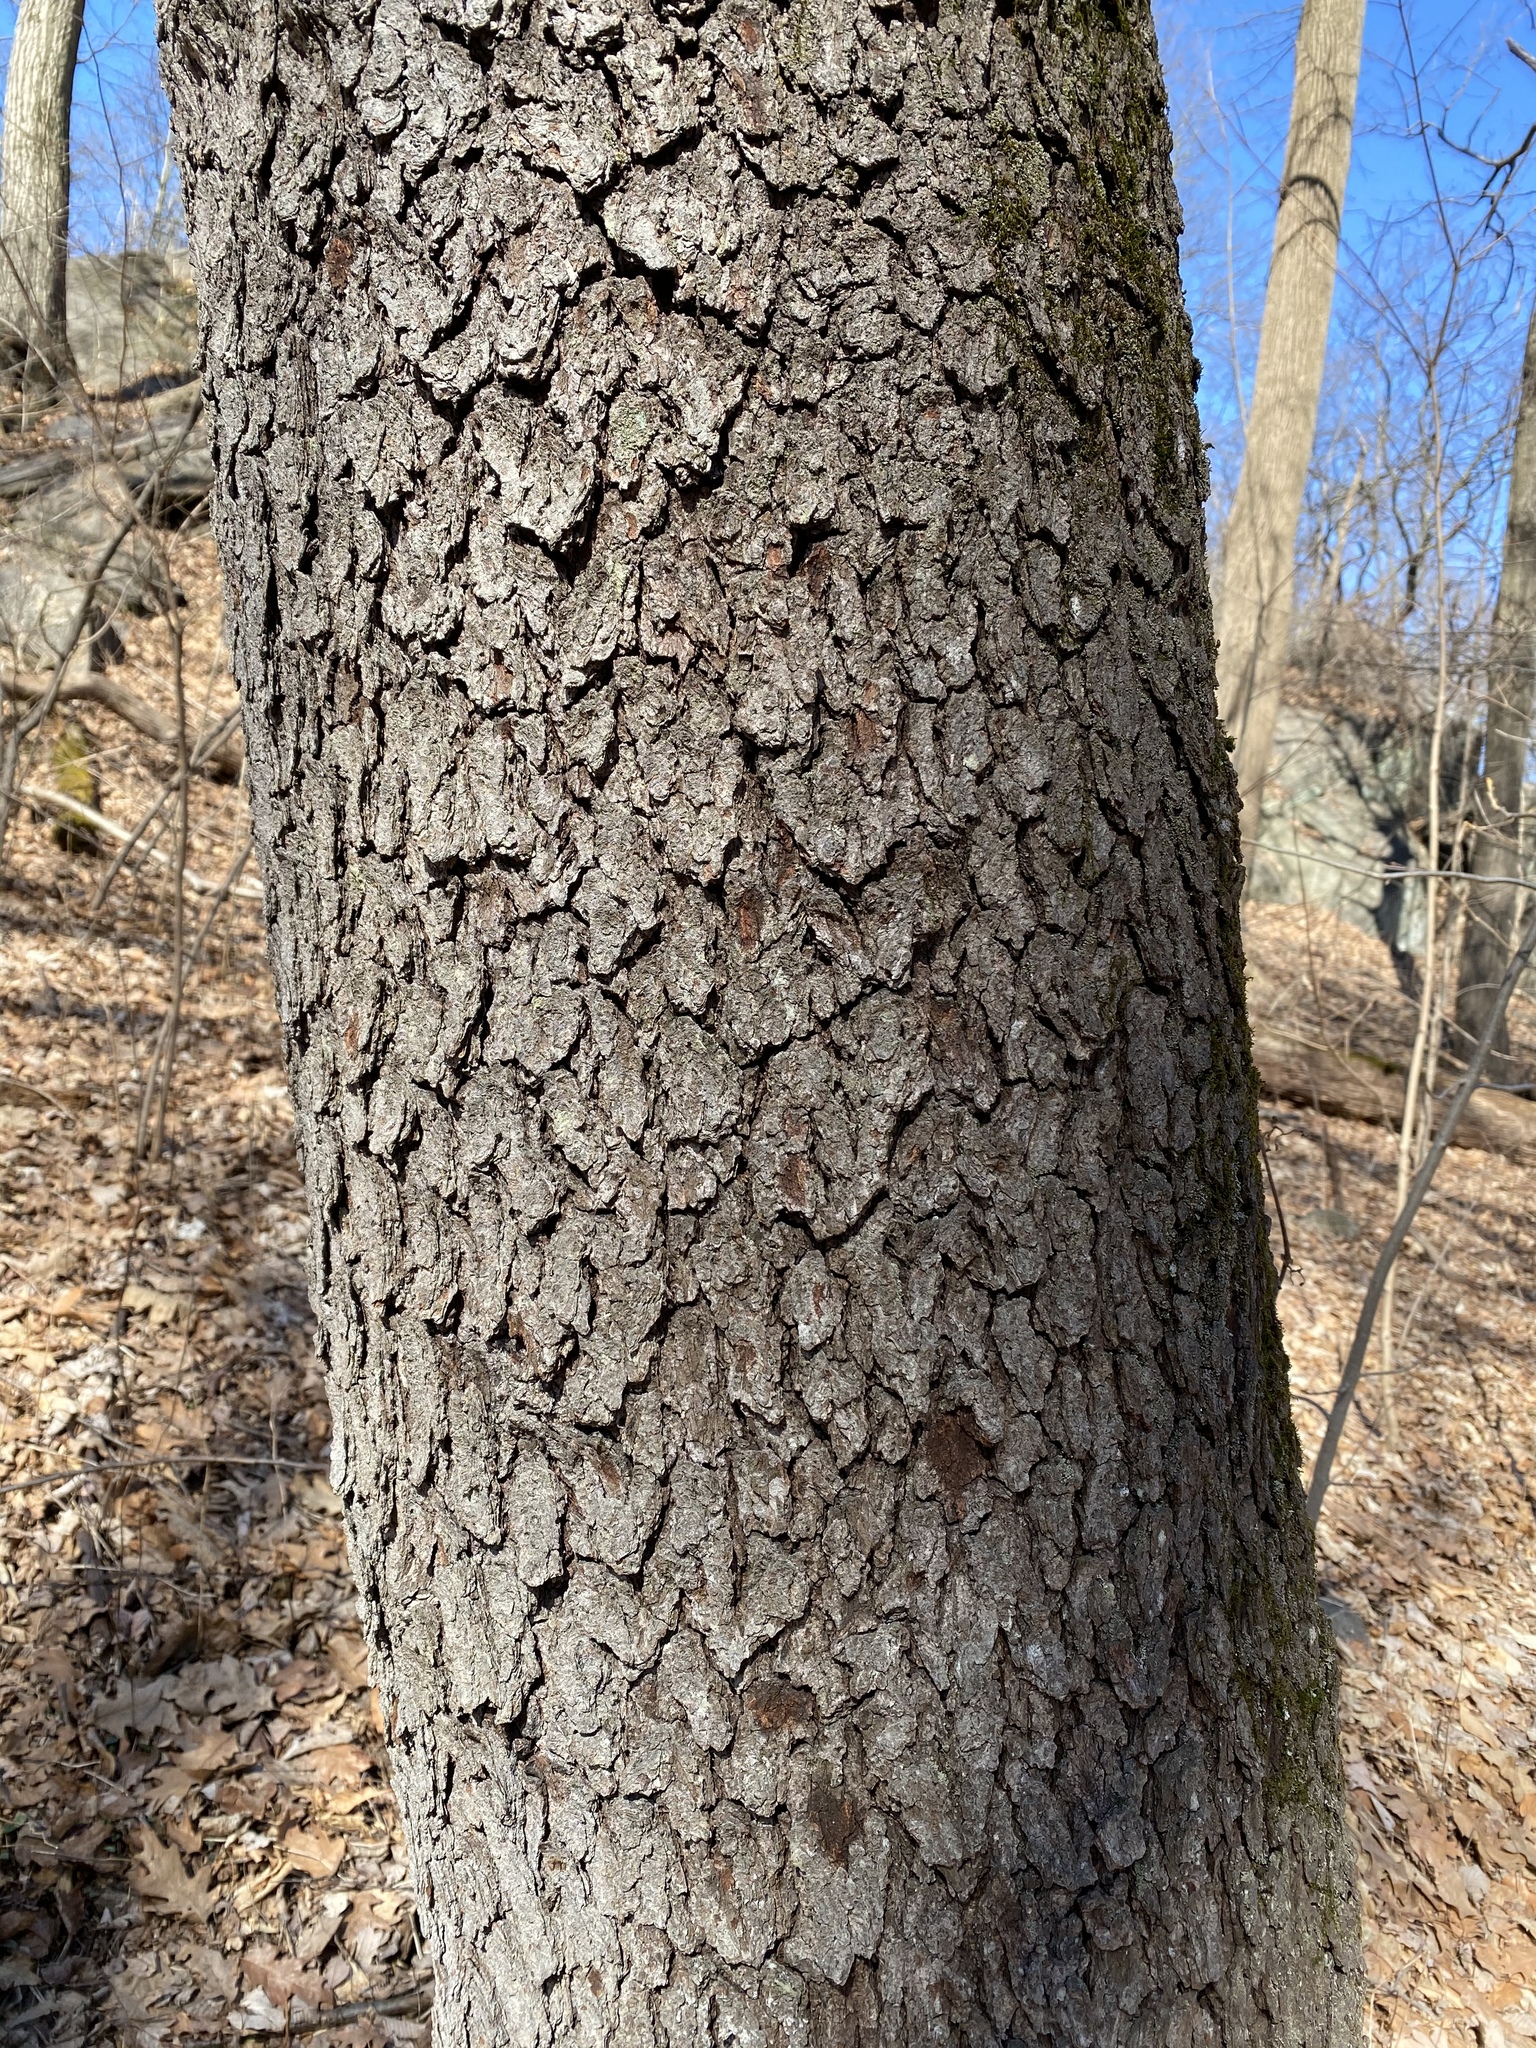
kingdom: Plantae
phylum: Tracheophyta
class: Magnoliopsida
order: Rosales
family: Rosaceae
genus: Prunus
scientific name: Prunus serotina
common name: Black cherry
